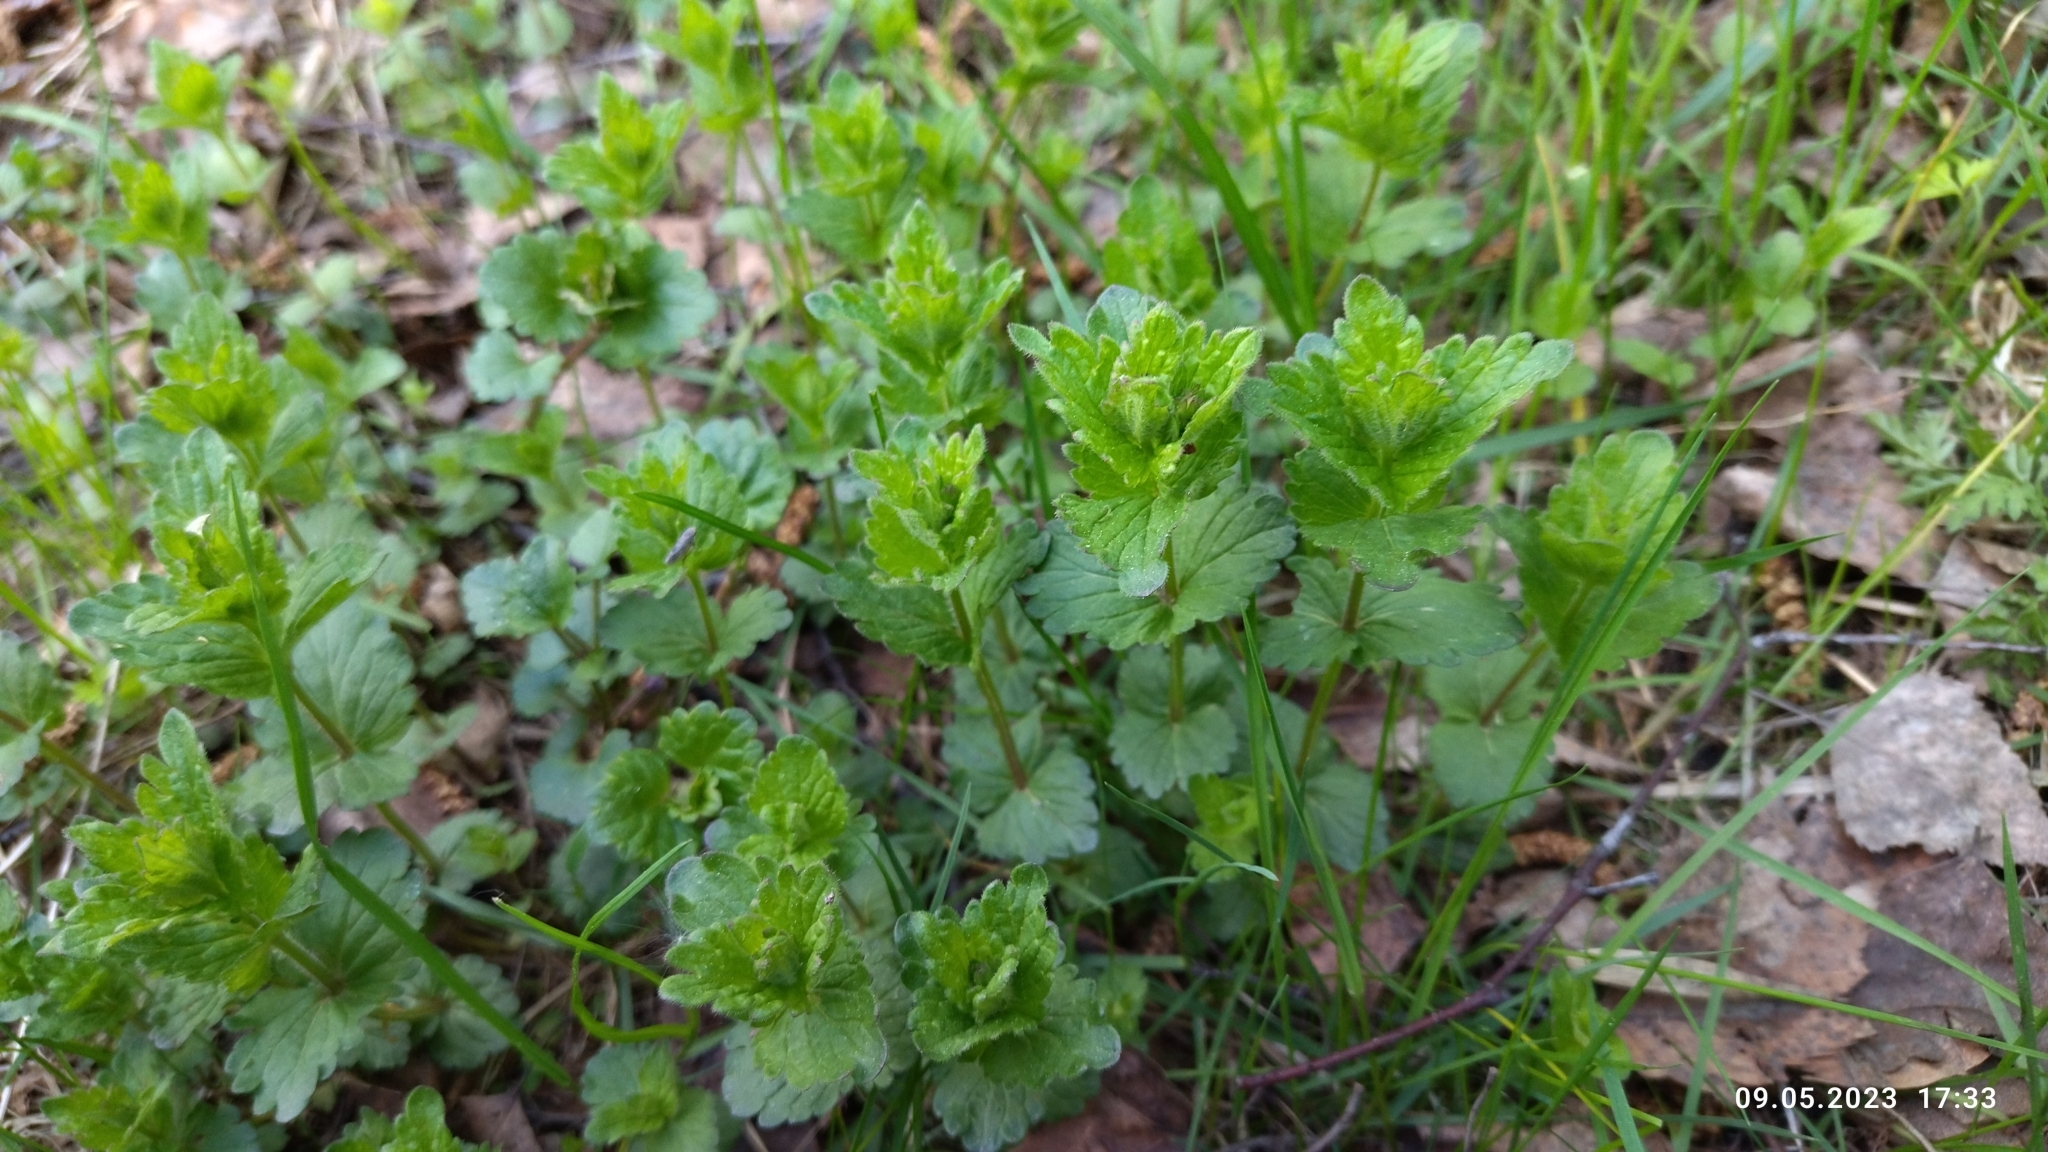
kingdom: Plantae
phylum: Tracheophyta
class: Magnoliopsida
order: Lamiales
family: Plantaginaceae
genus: Veronica
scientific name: Veronica chamaedrys
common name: Germander speedwell
